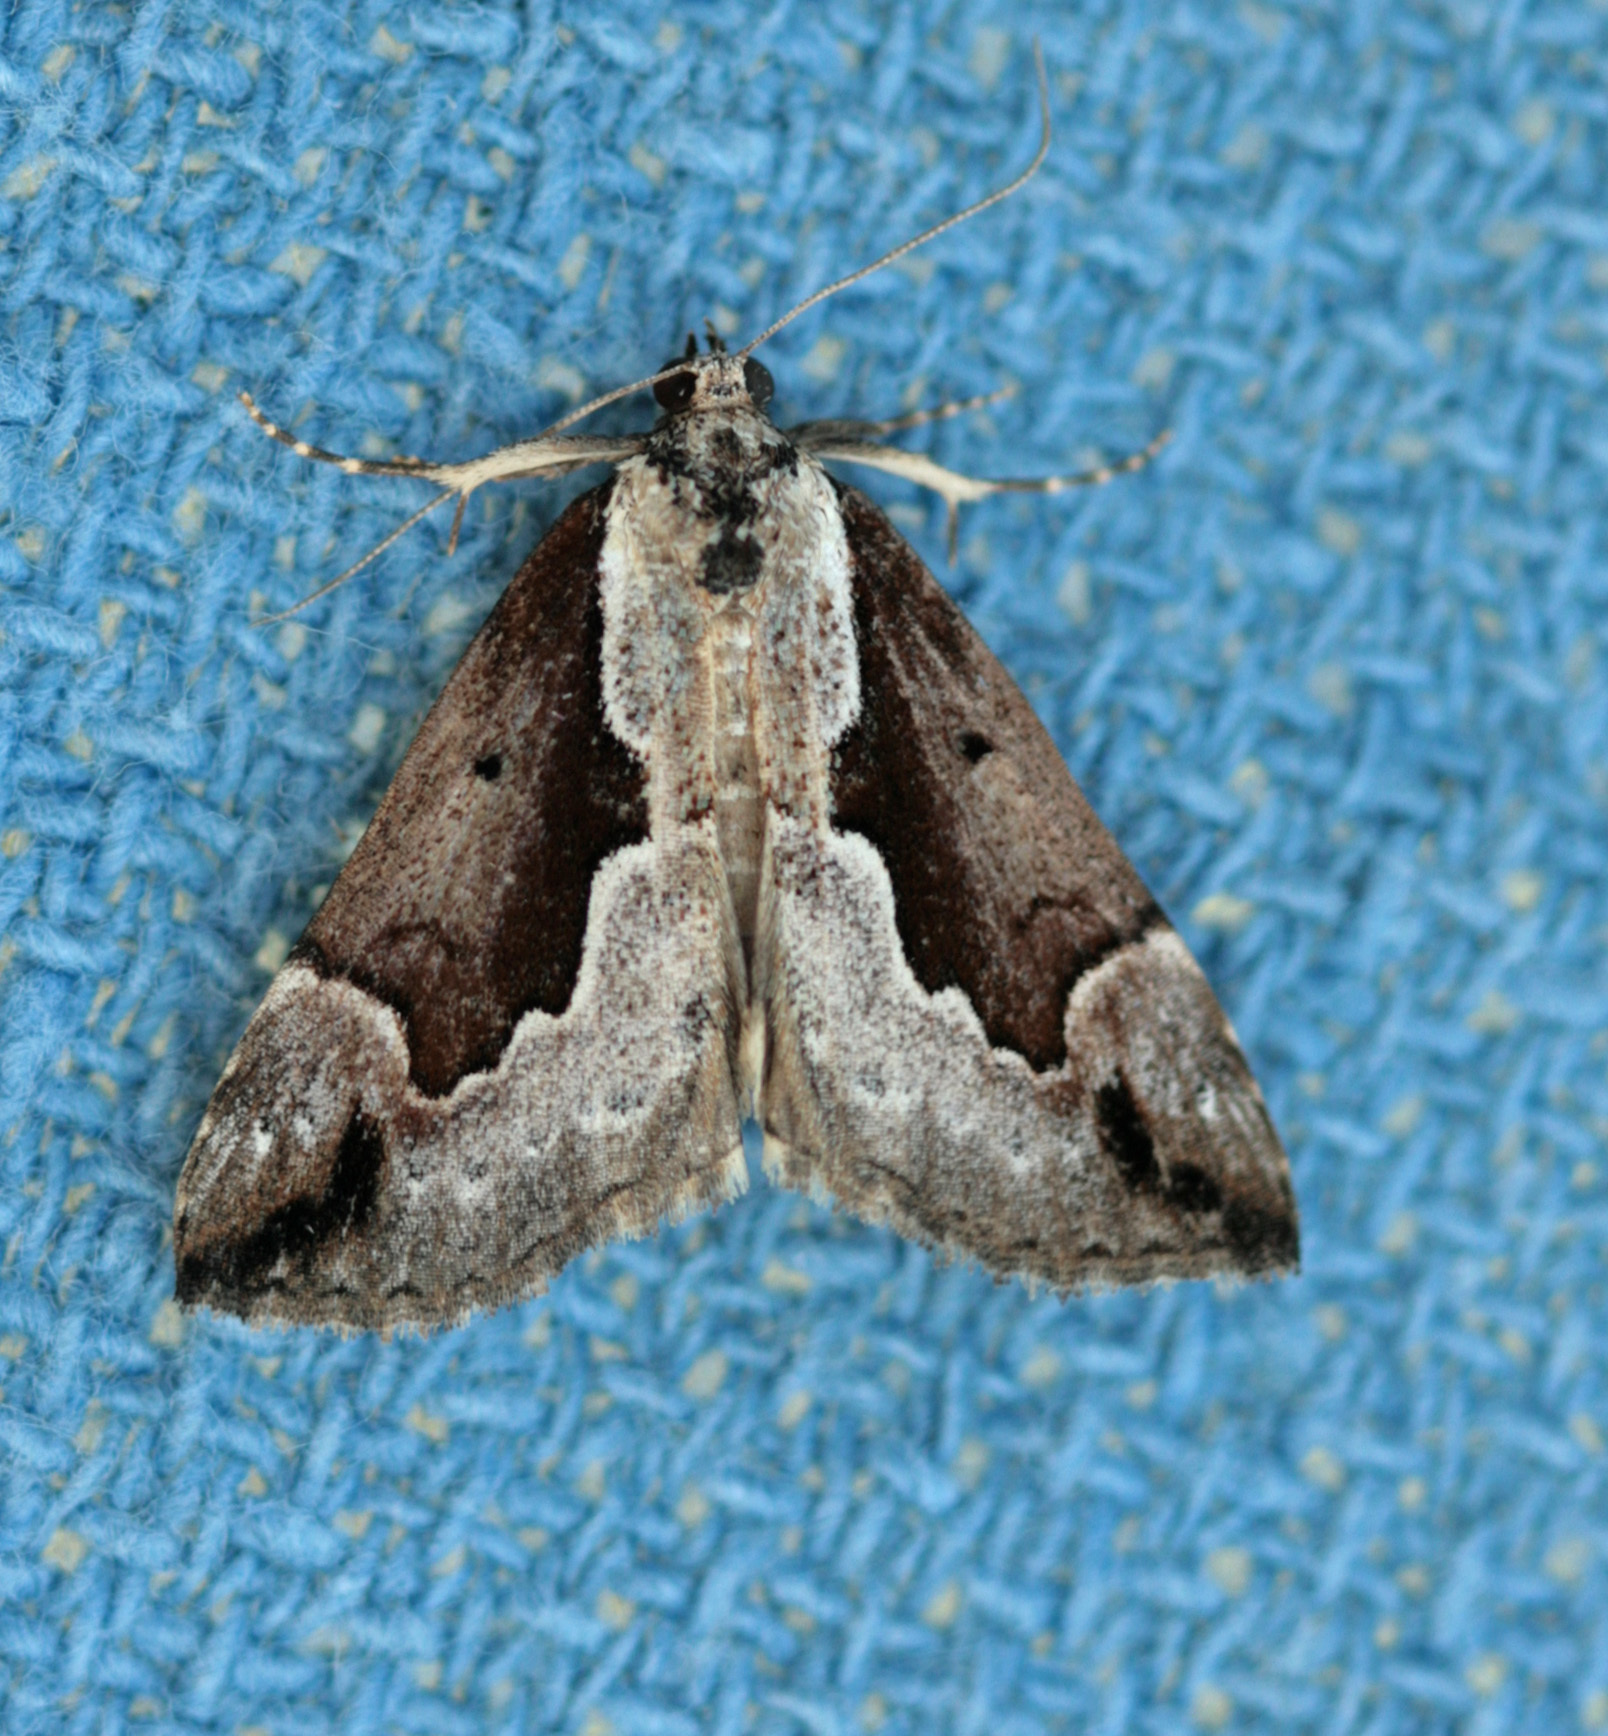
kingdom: Animalia
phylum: Arthropoda
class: Insecta
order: Lepidoptera
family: Erebidae
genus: Hypena
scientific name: Hypena baltimoralis
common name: Baltimore snout
